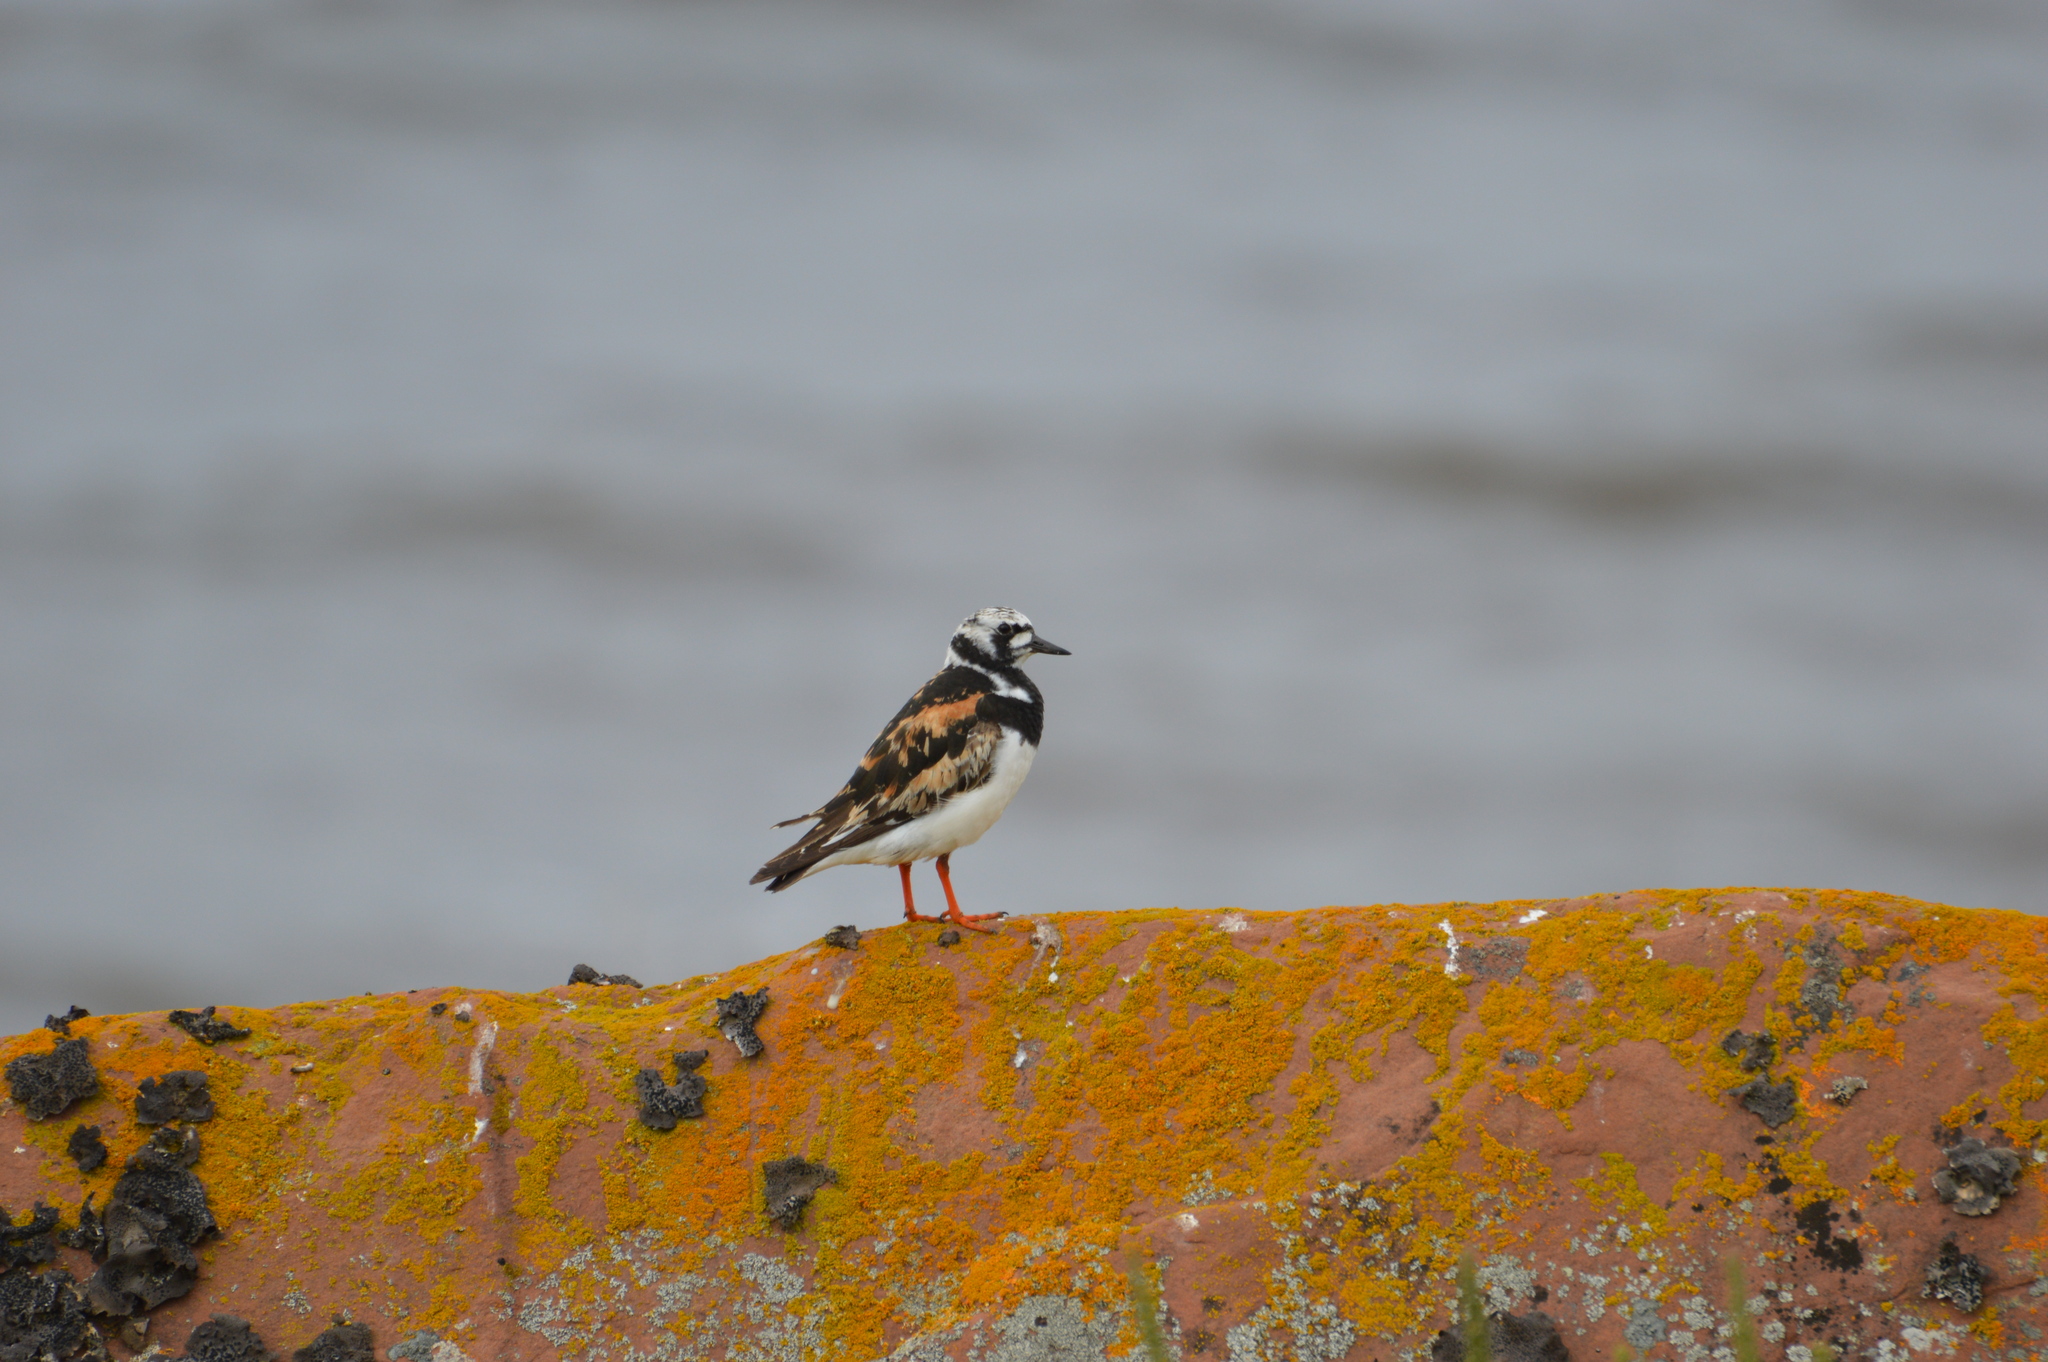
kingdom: Animalia
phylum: Chordata
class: Aves
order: Charadriiformes
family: Scolopacidae
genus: Arenaria
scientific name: Arenaria interpres
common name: Ruddy turnstone
